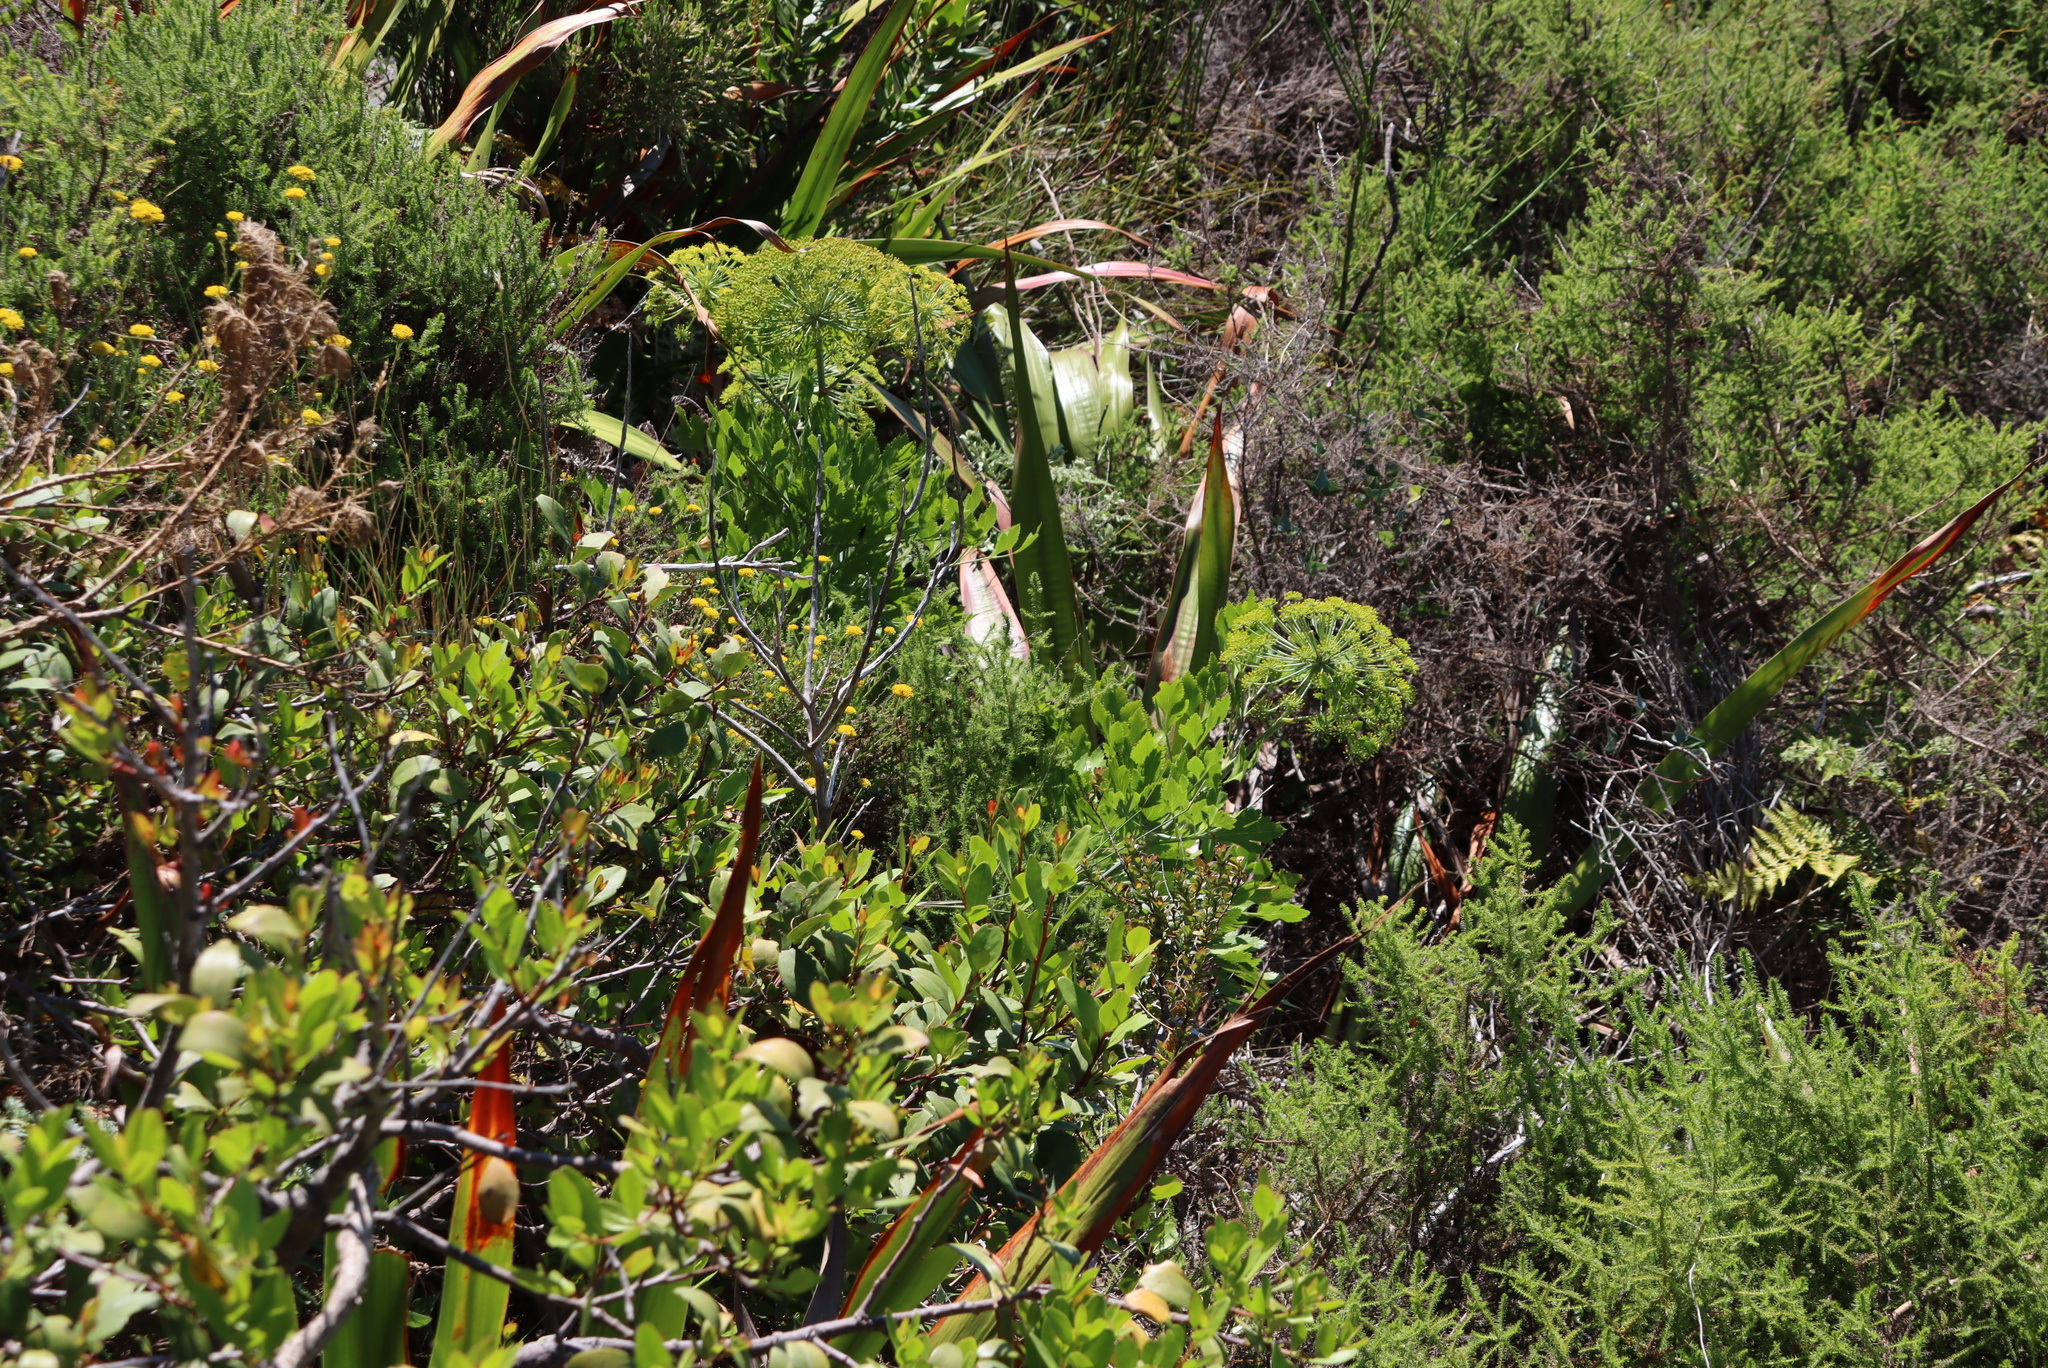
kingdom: Plantae
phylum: Tracheophyta
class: Magnoliopsida
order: Apiales
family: Apiaceae
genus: Notobubon
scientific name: Notobubon galbanum
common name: Blisterbush
